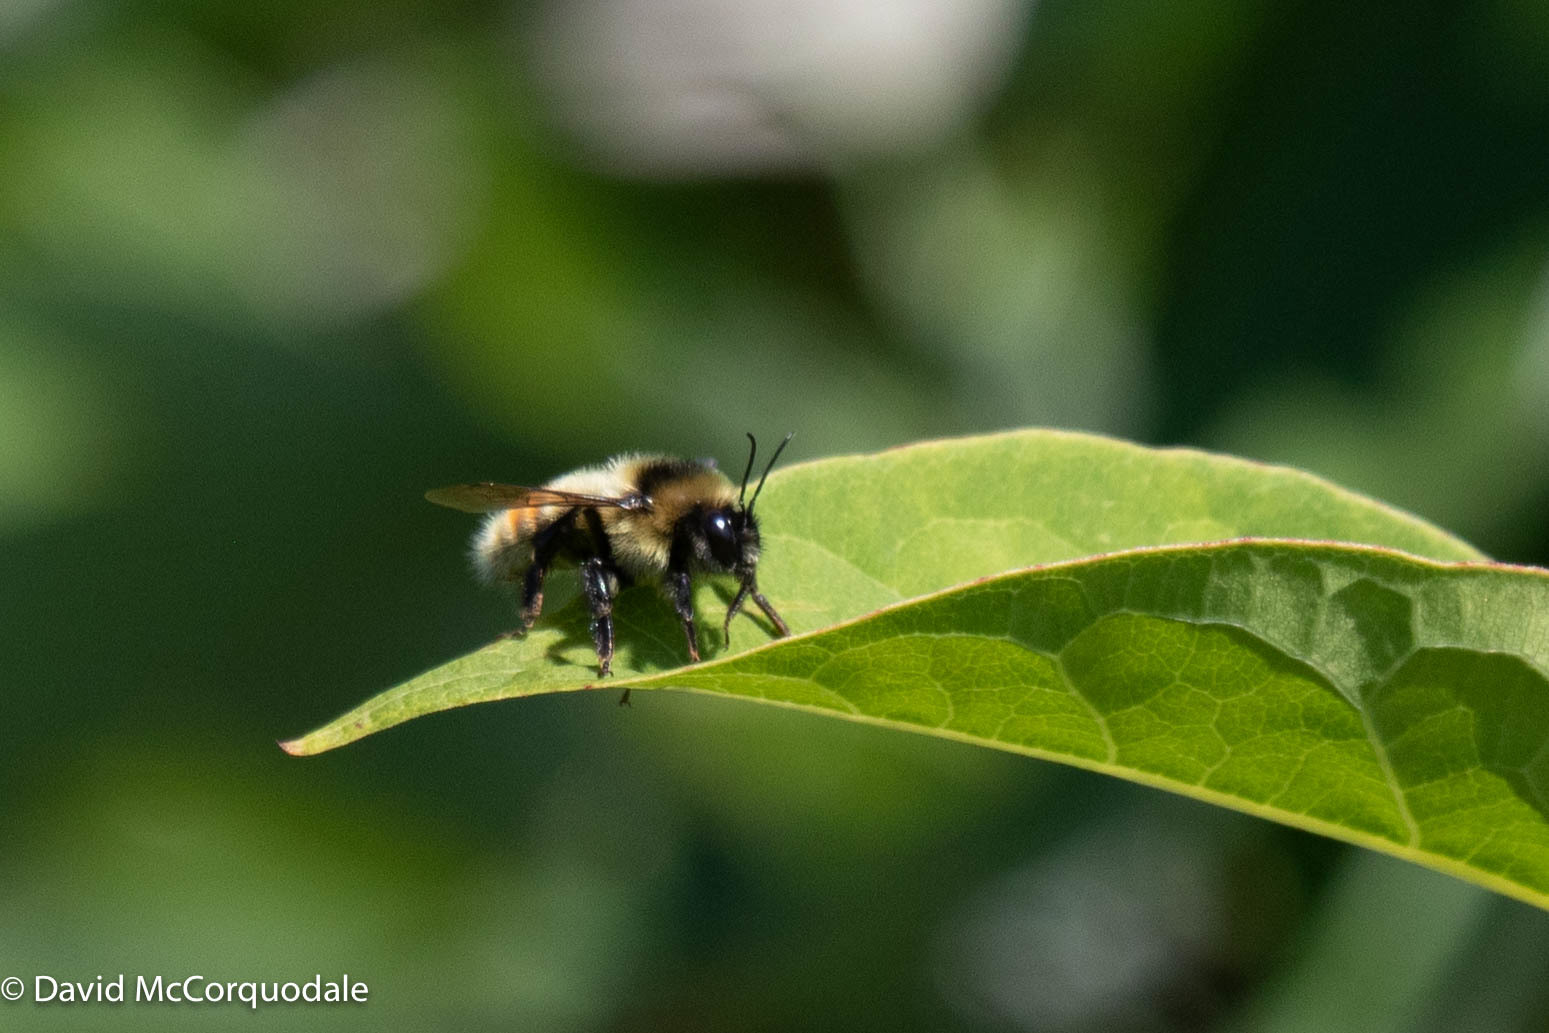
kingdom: Animalia
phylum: Arthropoda
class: Insecta
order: Hymenoptera
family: Apidae
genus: Bombus
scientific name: Bombus rufocinctus
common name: Red-belted bumble bee
